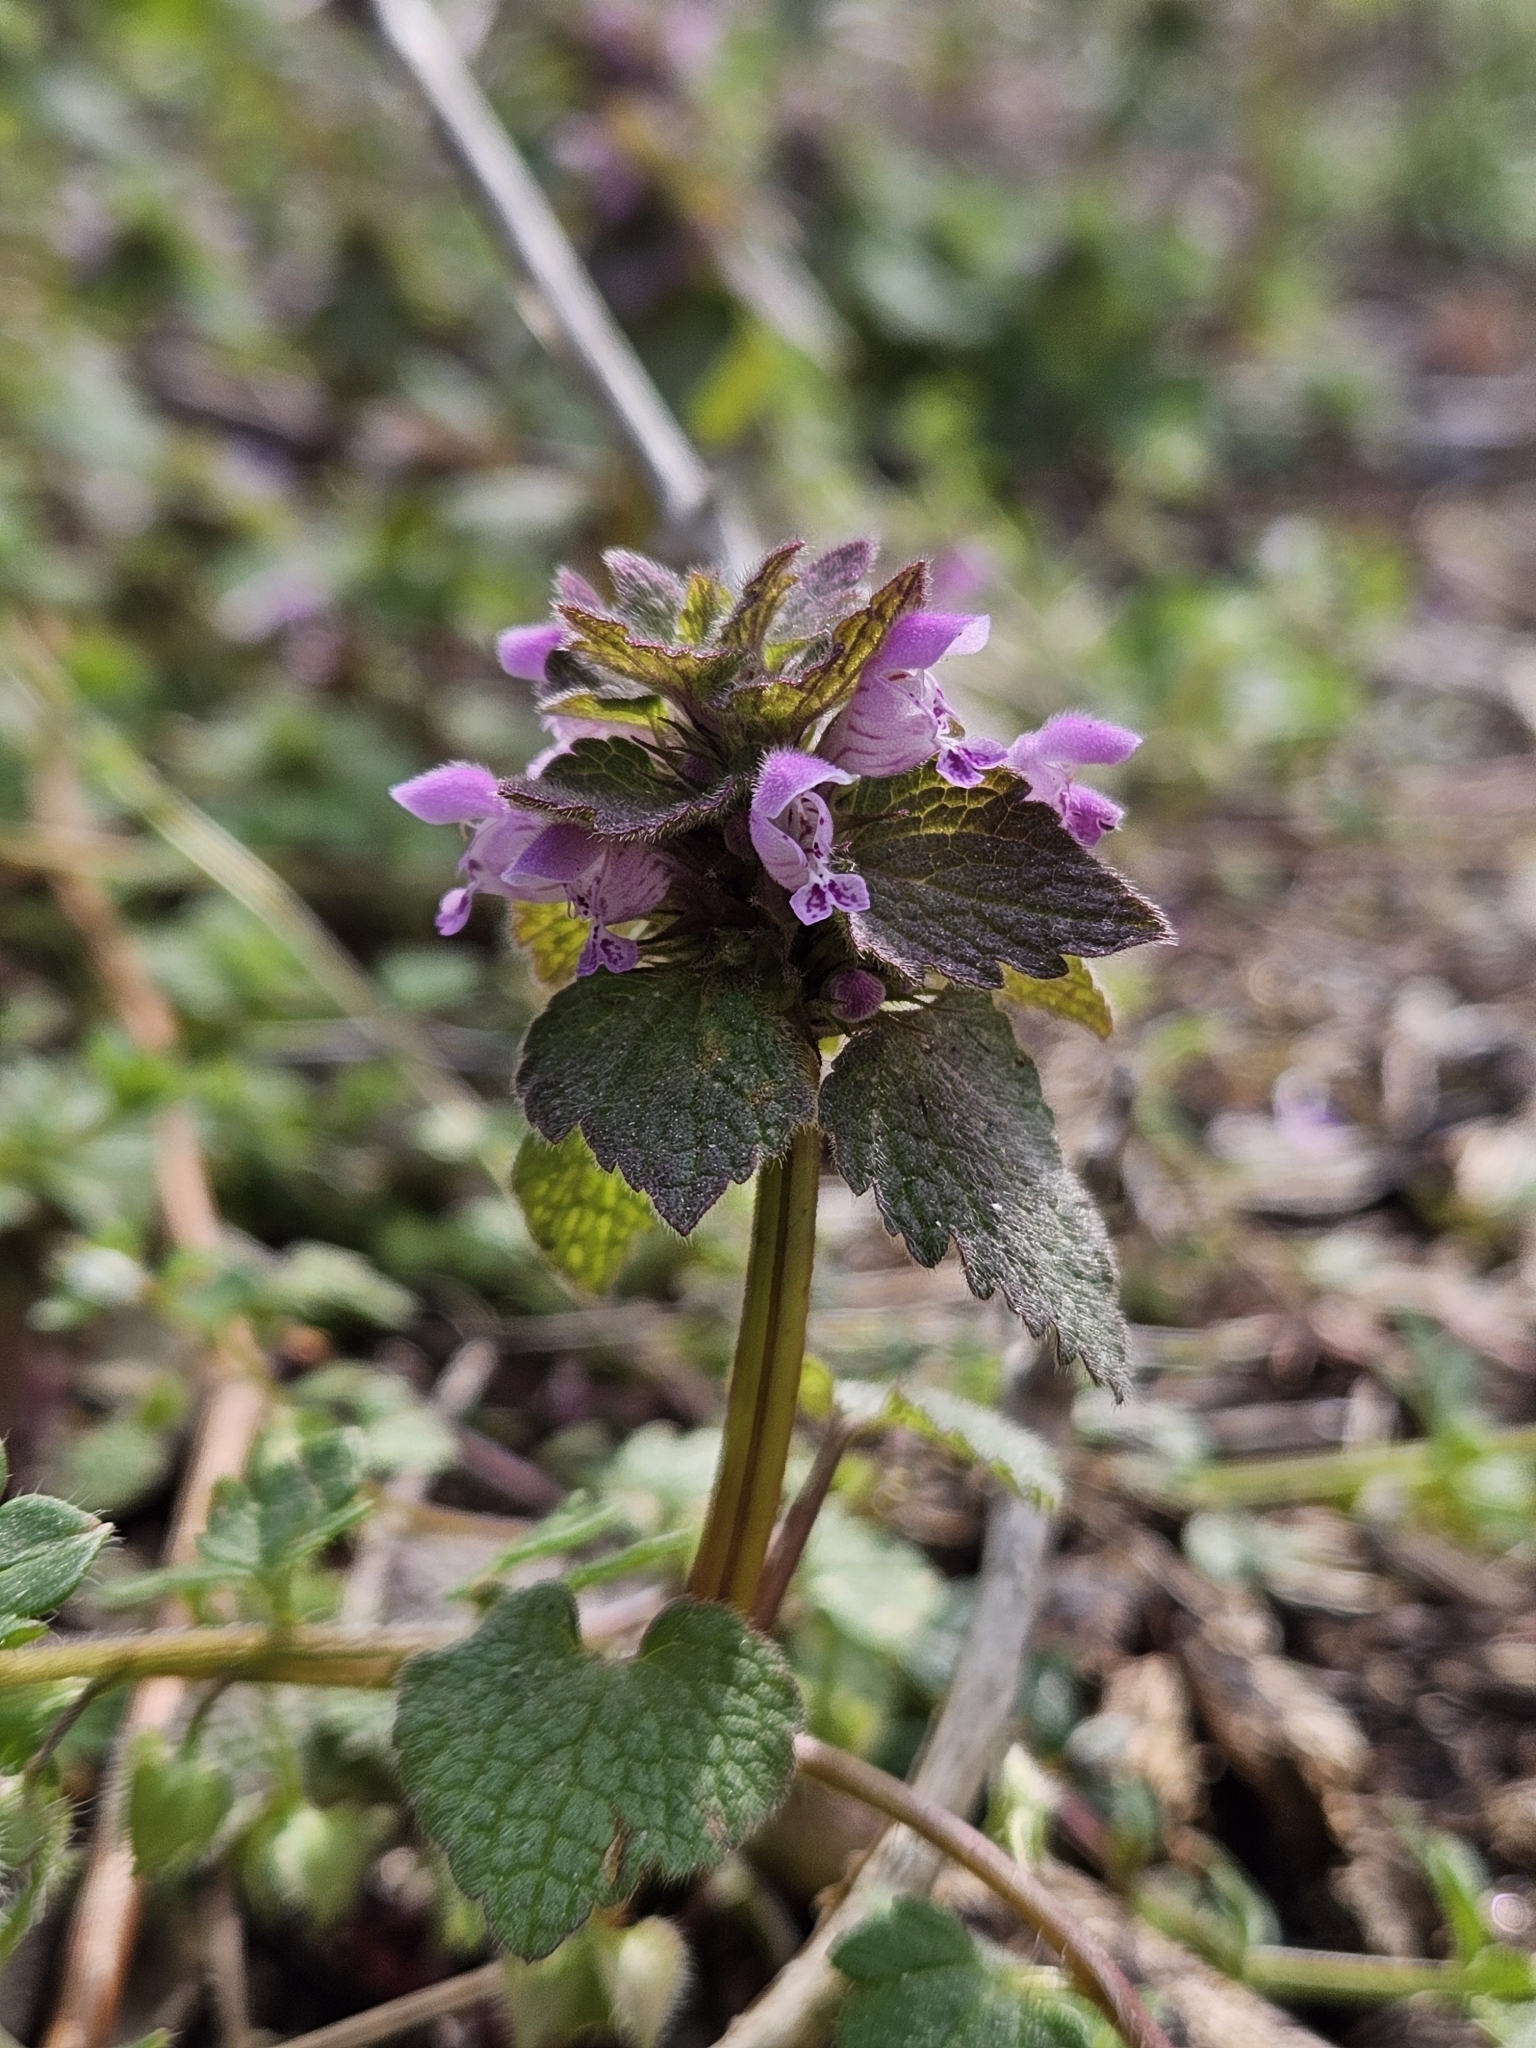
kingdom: Plantae
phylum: Tracheophyta
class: Magnoliopsida
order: Lamiales
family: Lamiaceae
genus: Lamium
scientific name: Lamium purpureum
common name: Red dead-nettle
